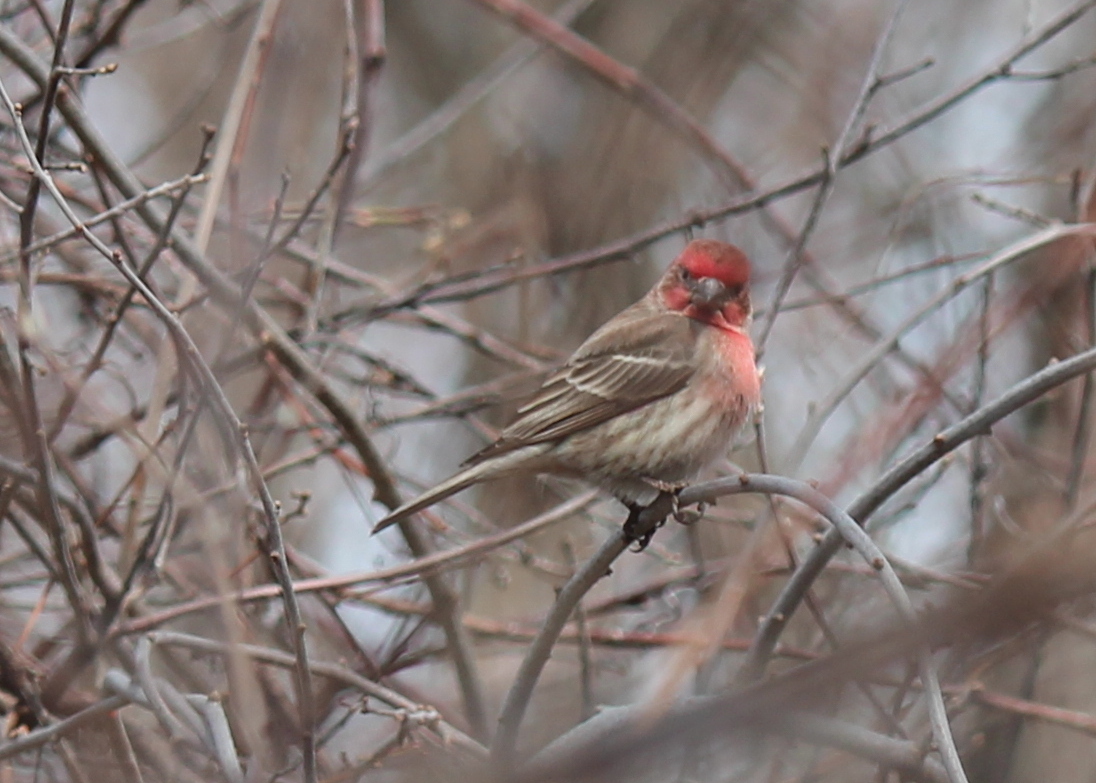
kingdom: Animalia
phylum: Chordata
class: Aves
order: Passeriformes
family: Fringillidae
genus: Haemorhous
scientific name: Haemorhous mexicanus
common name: House finch
